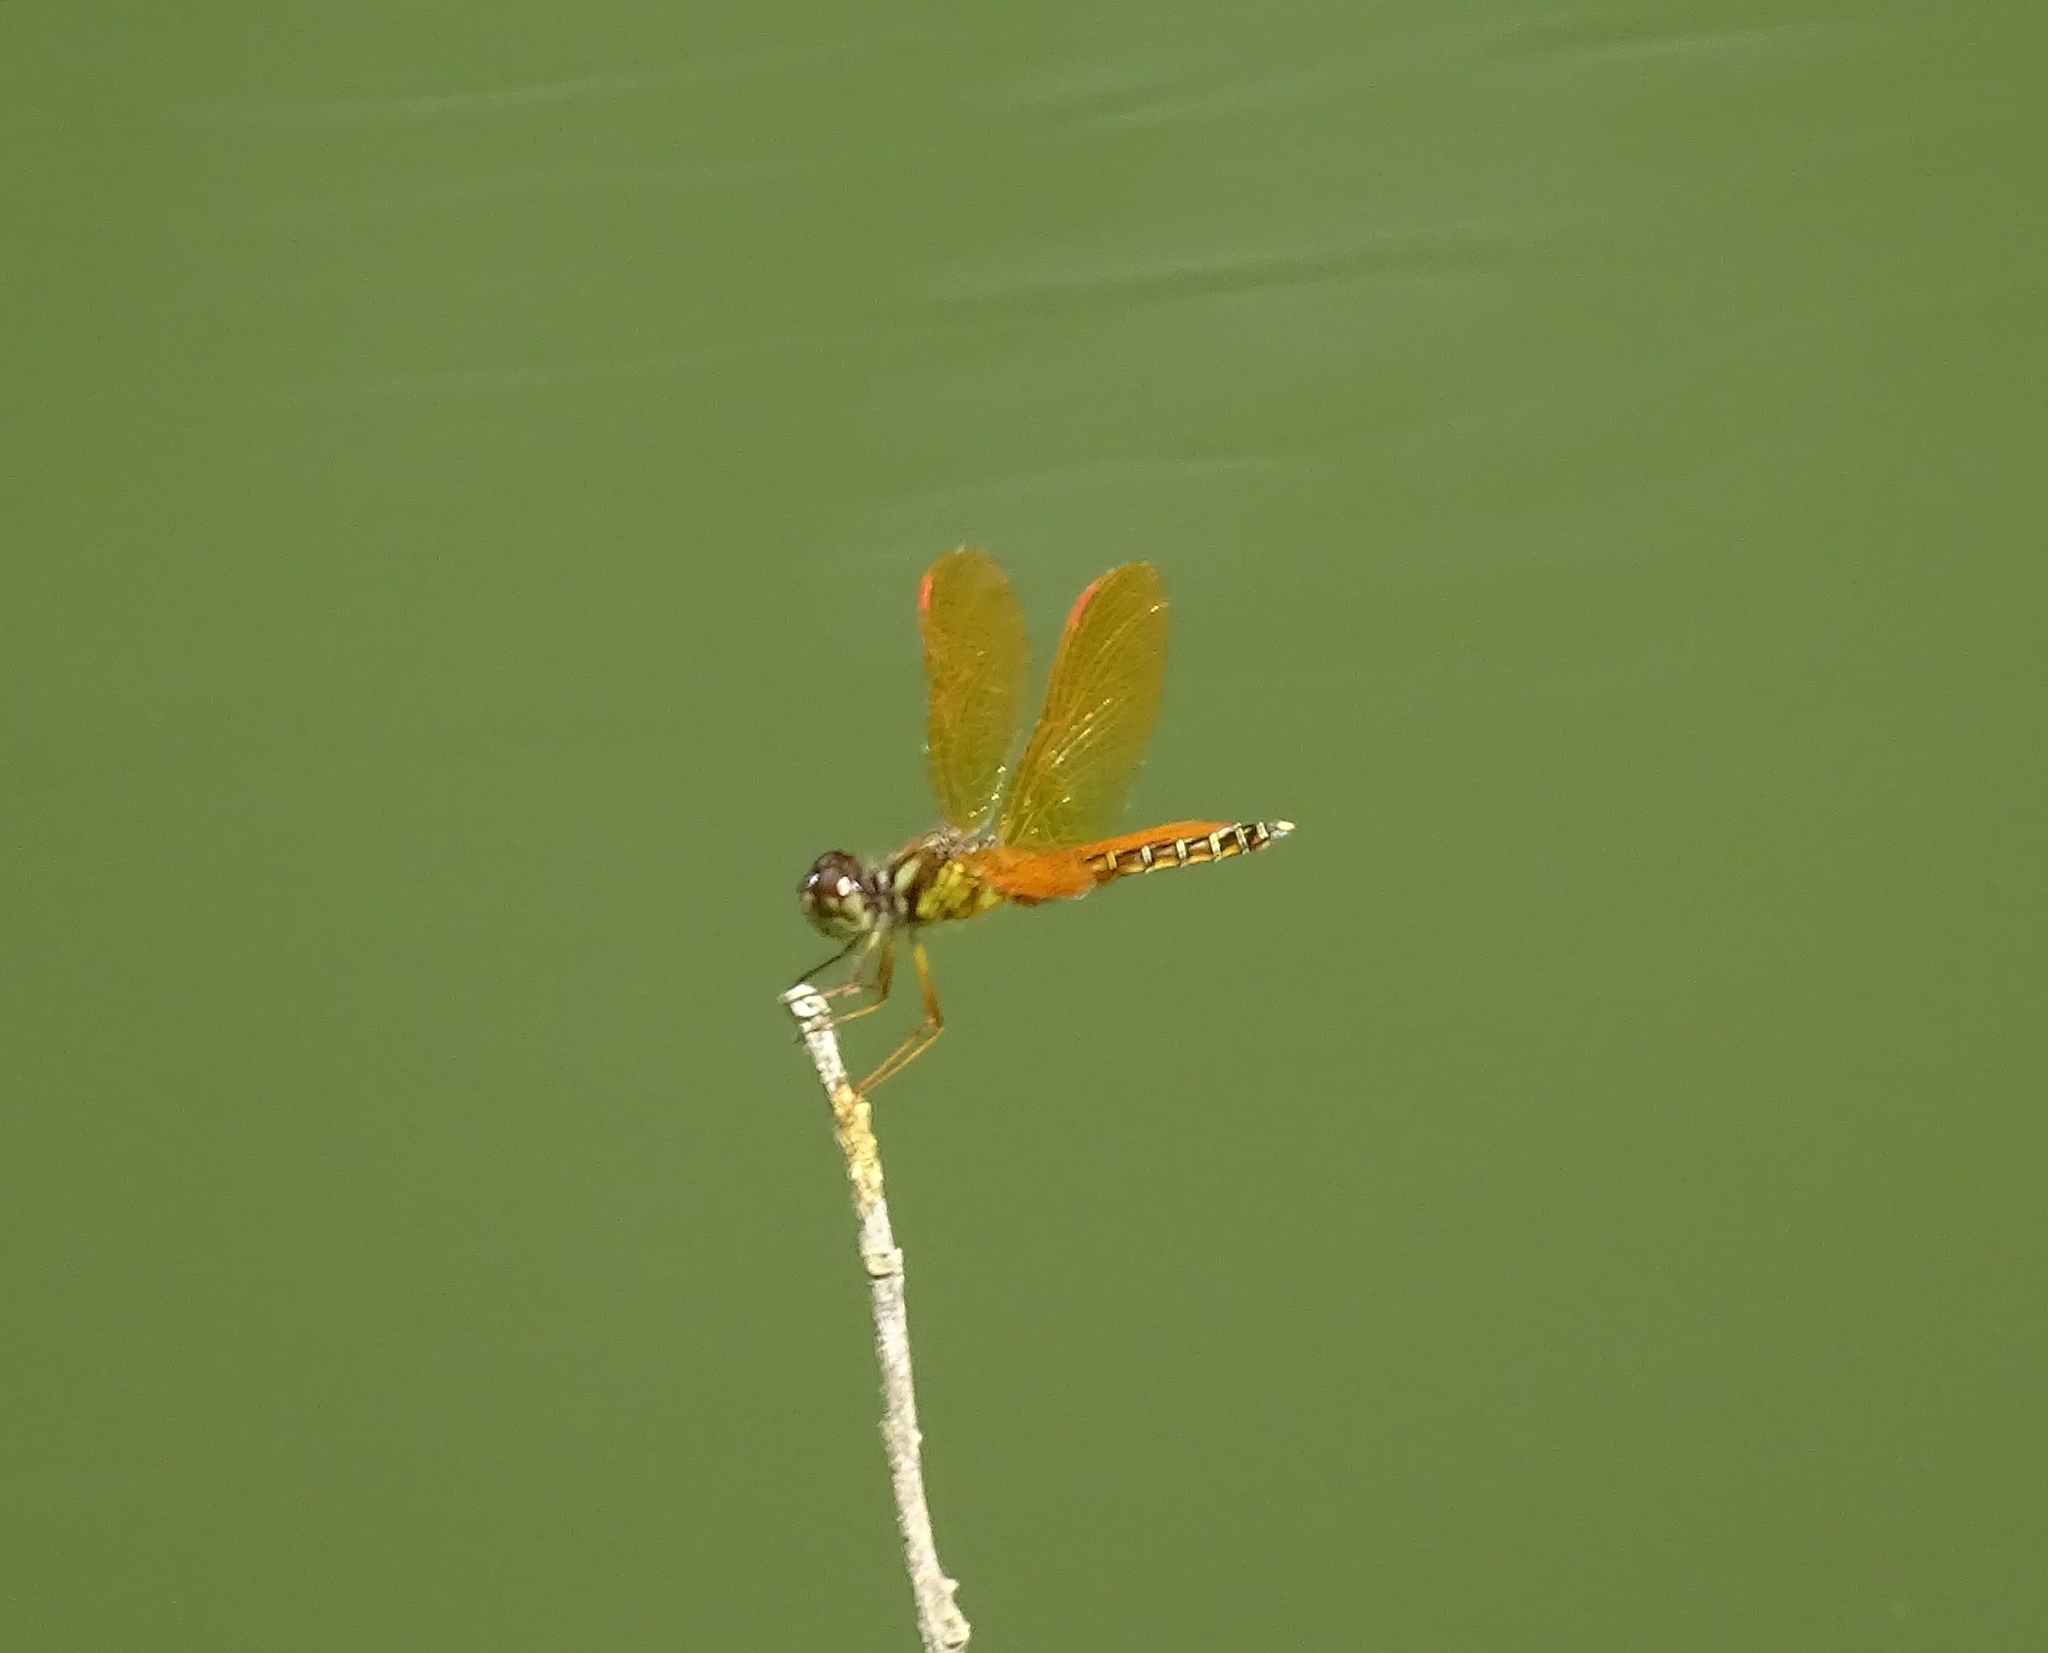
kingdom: Animalia
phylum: Arthropoda
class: Insecta
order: Odonata
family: Libellulidae
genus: Perithemis
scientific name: Perithemis tenera
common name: Eastern amberwing
